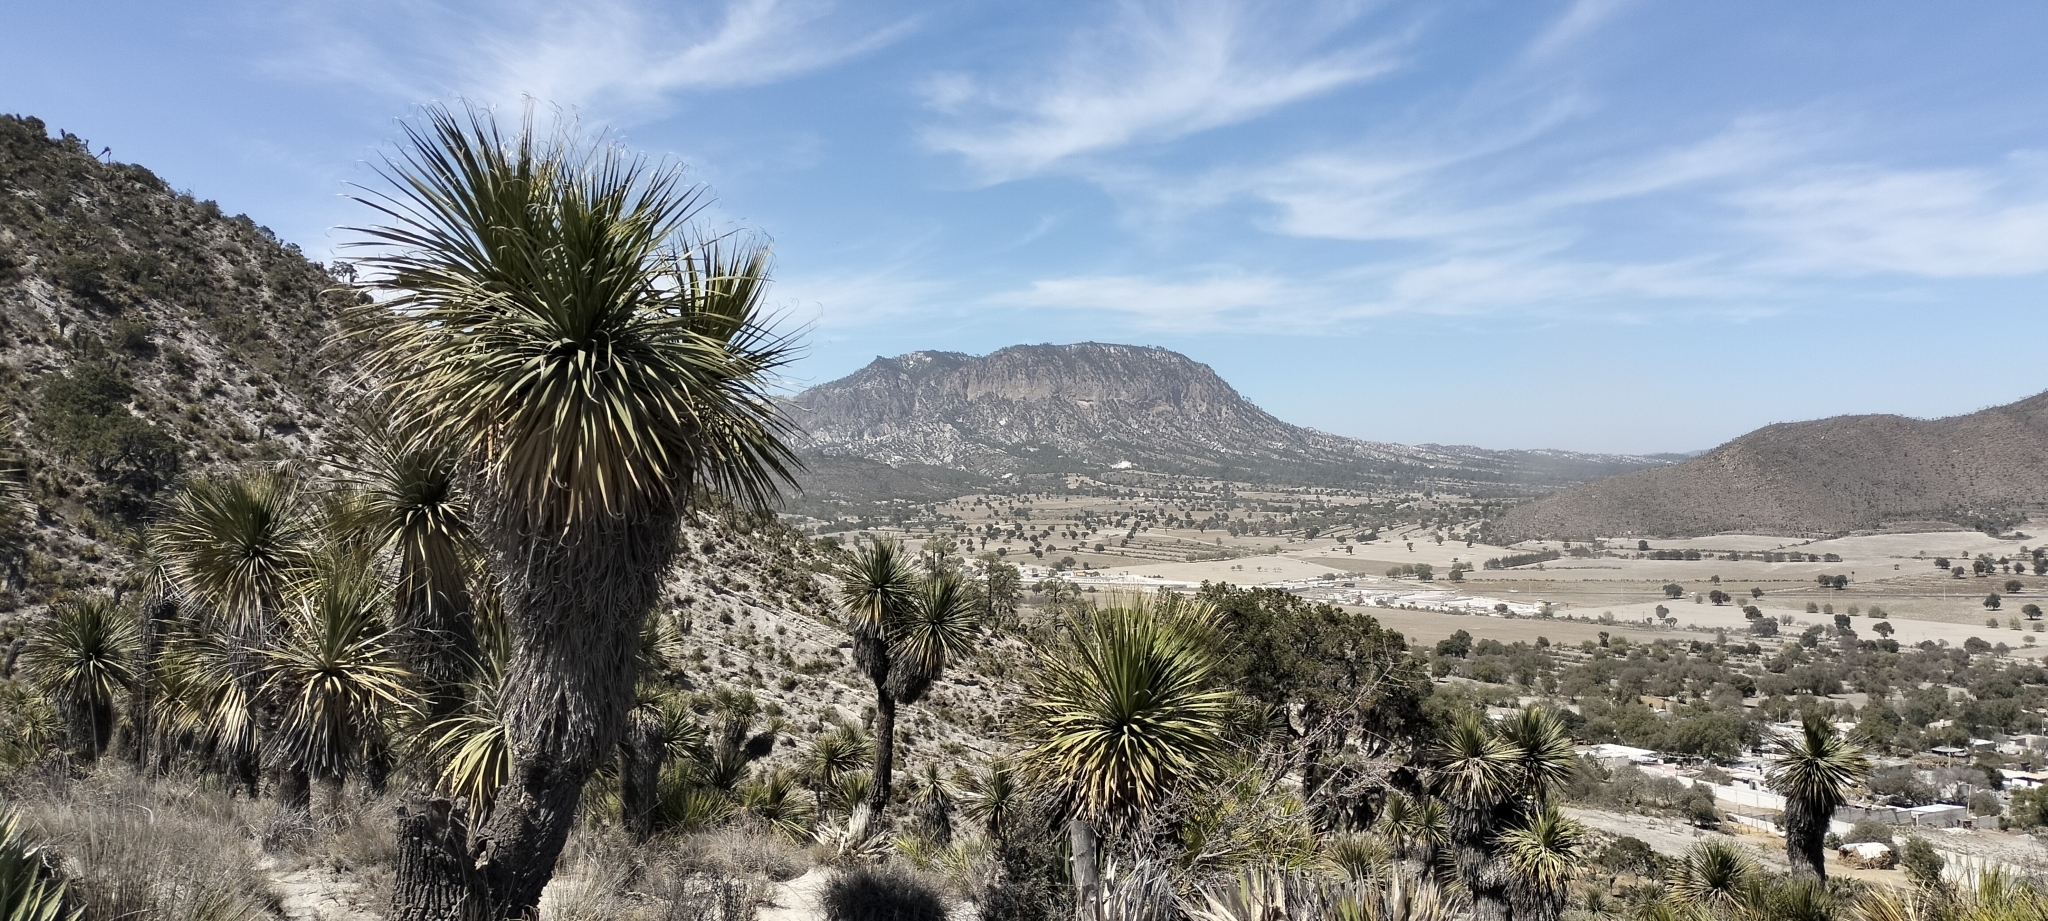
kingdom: Plantae
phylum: Tracheophyta
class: Liliopsida
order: Asparagales
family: Asparagaceae
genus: Nolina
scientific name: Nolina parviflora
